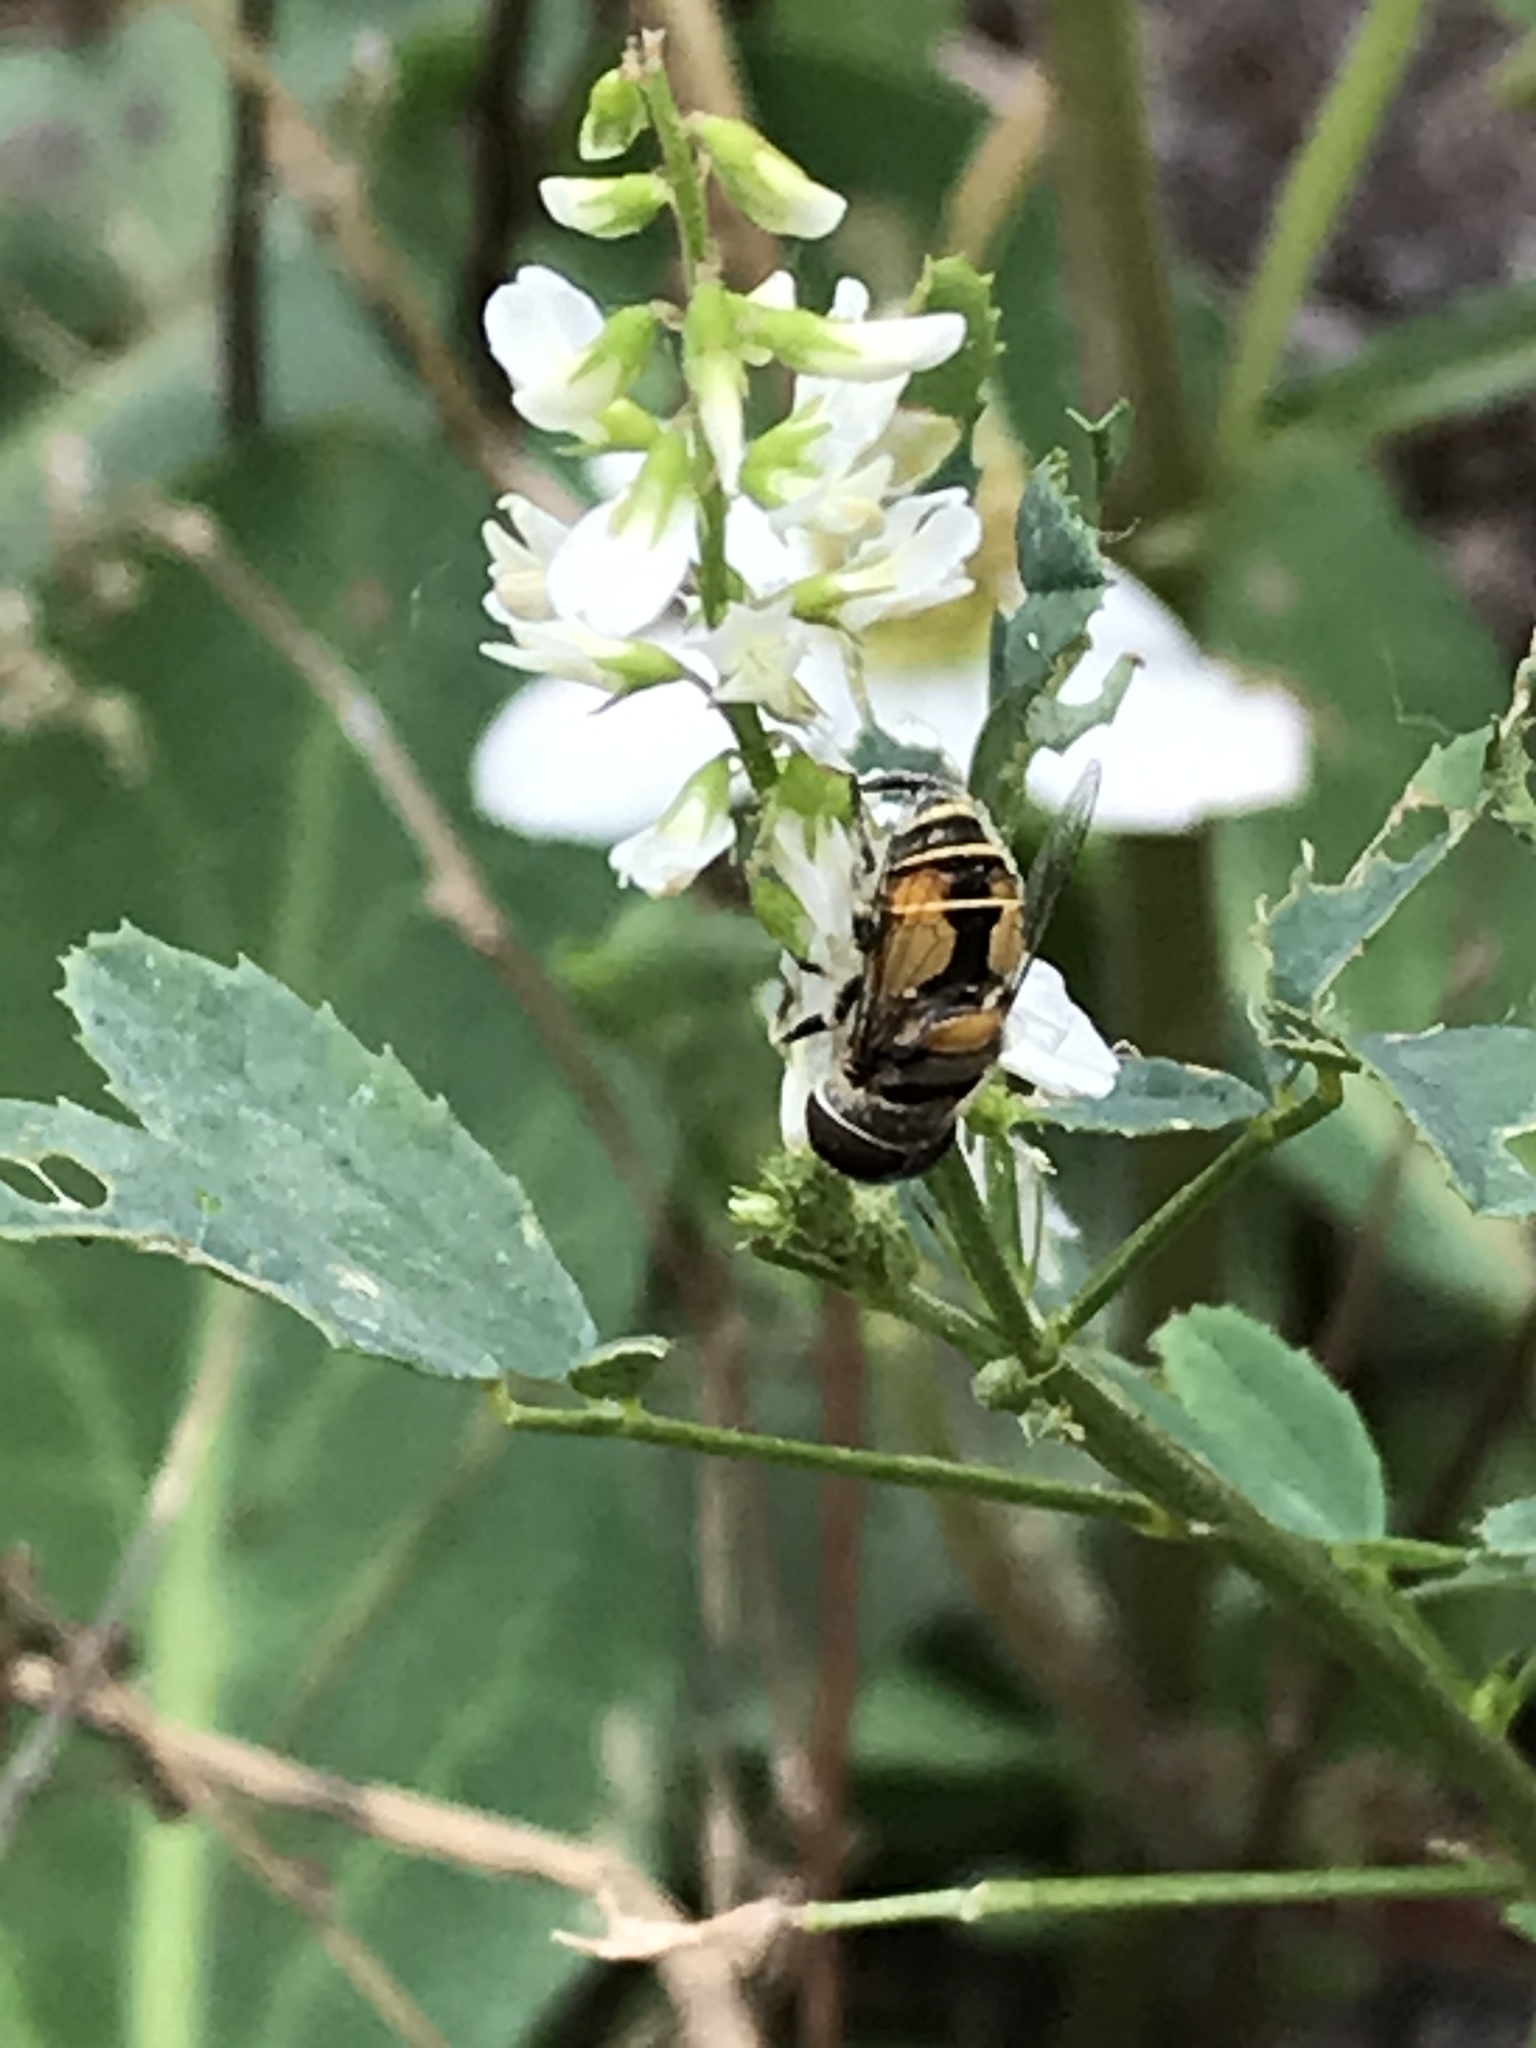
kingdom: Animalia
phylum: Arthropoda
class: Insecta
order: Diptera
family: Syrphidae
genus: Palpada
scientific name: Palpada alhambra
